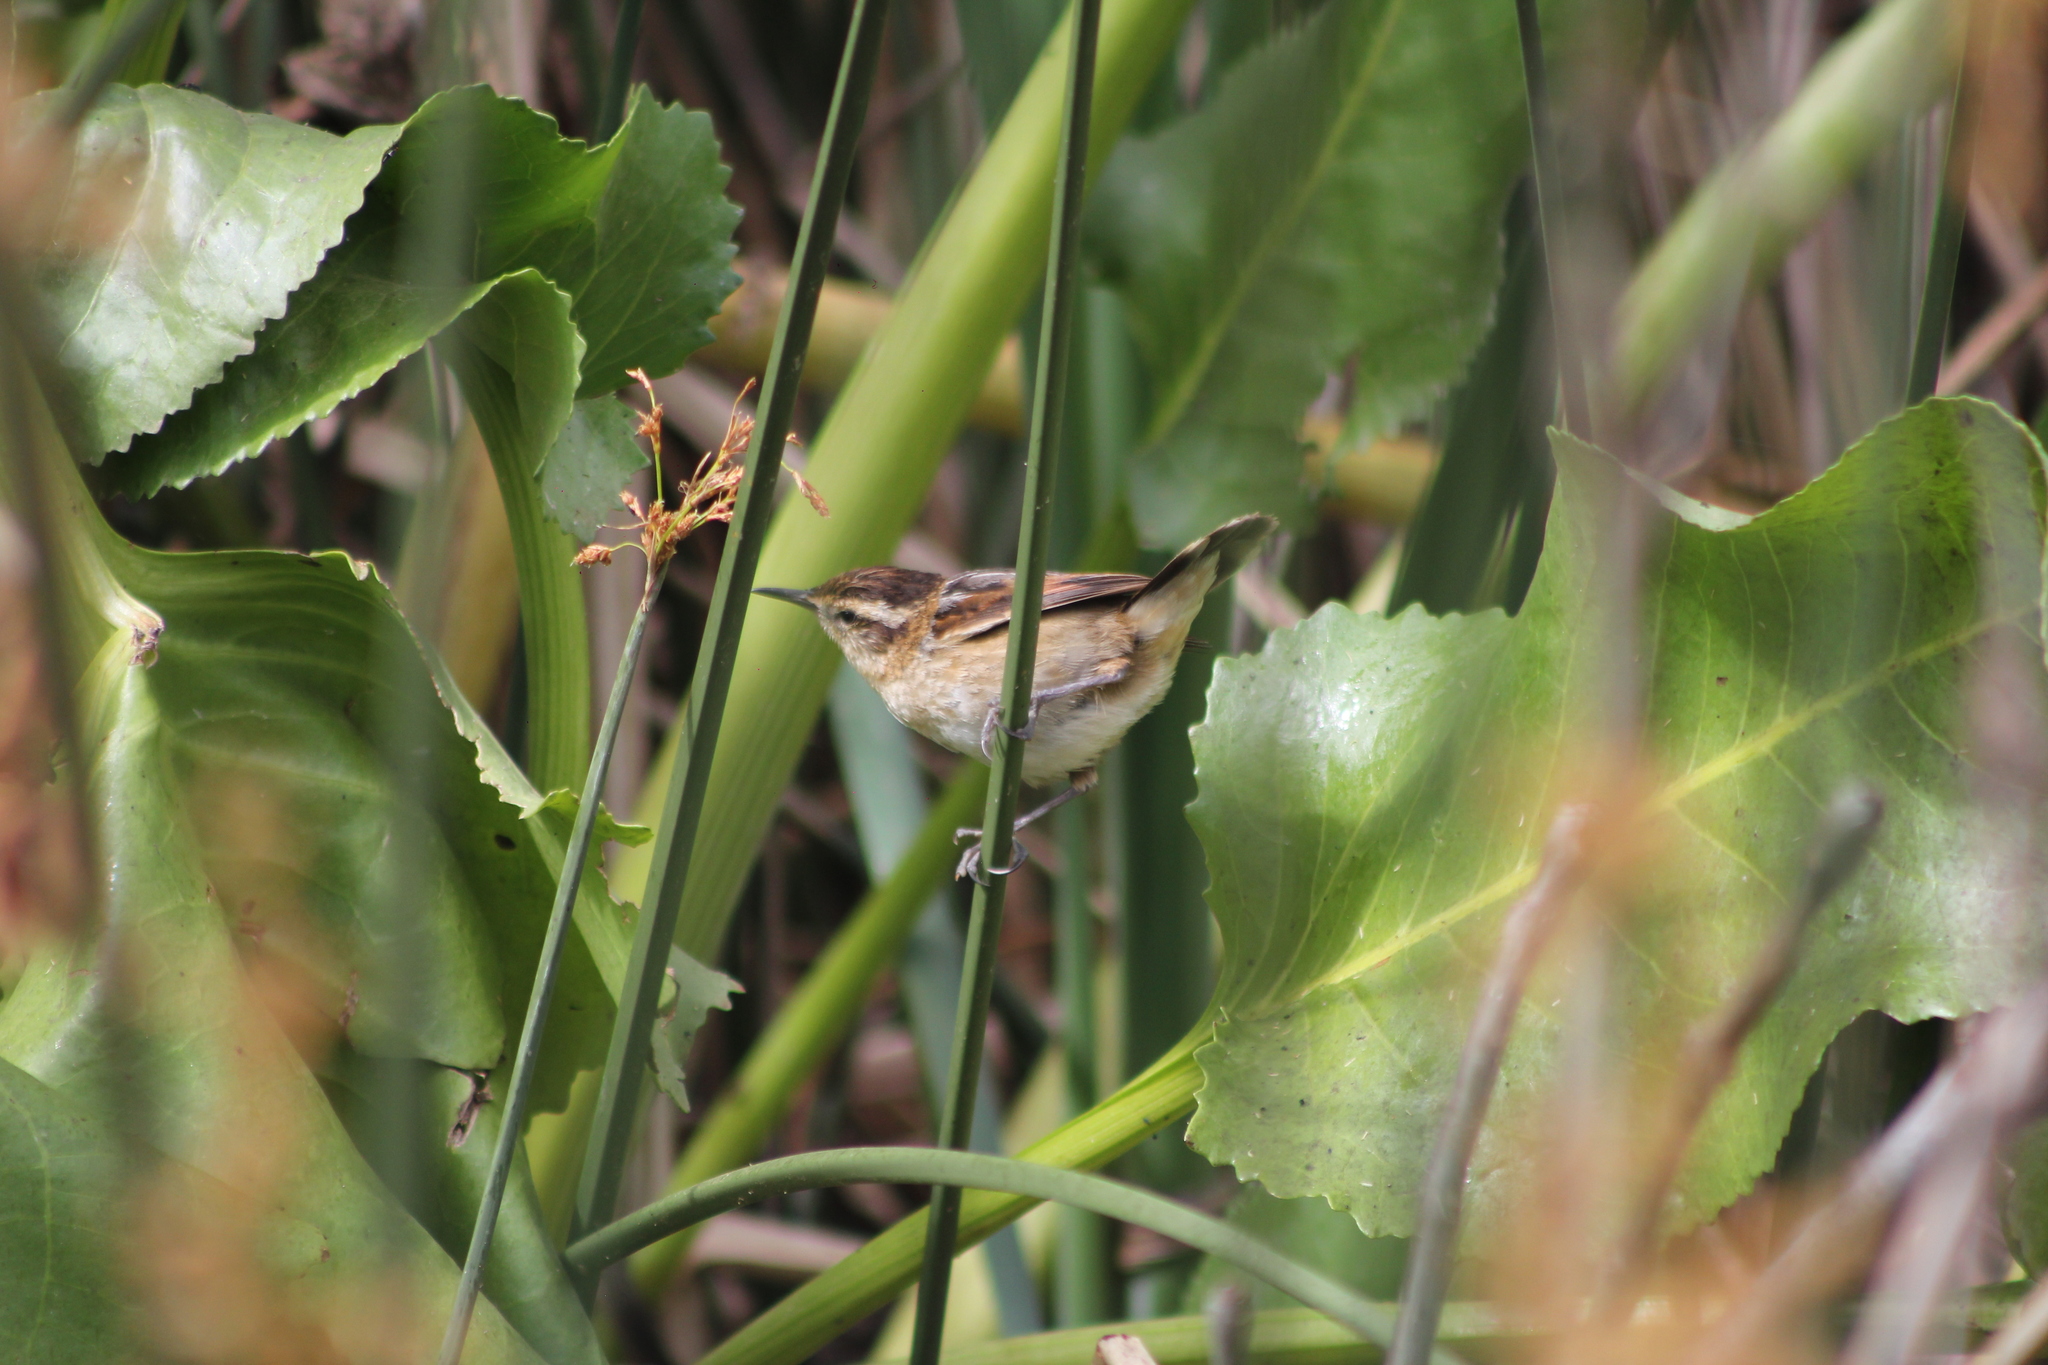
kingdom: Animalia
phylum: Chordata
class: Aves
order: Passeriformes
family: Furnariidae
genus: Phleocryptes
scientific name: Phleocryptes melanops
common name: Wren-like rushbird
